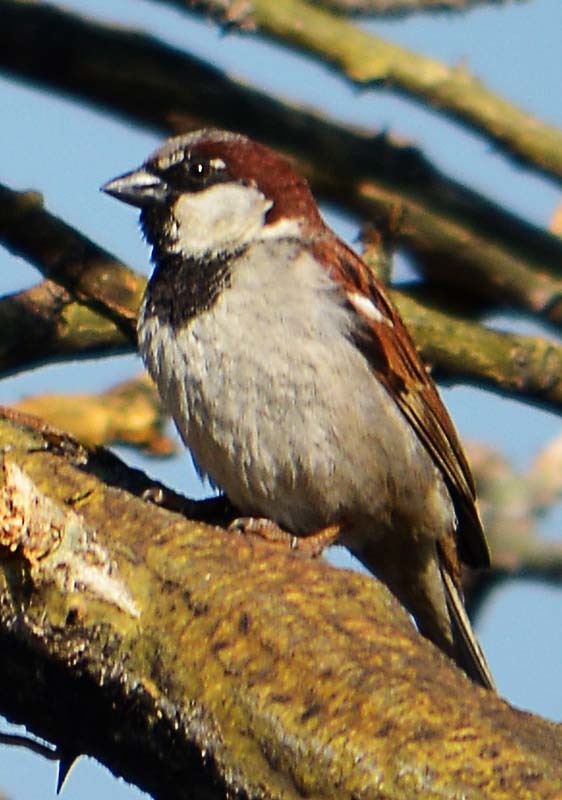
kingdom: Animalia
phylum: Chordata
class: Aves
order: Passeriformes
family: Passeridae
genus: Passer
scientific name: Passer domesticus
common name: House sparrow
